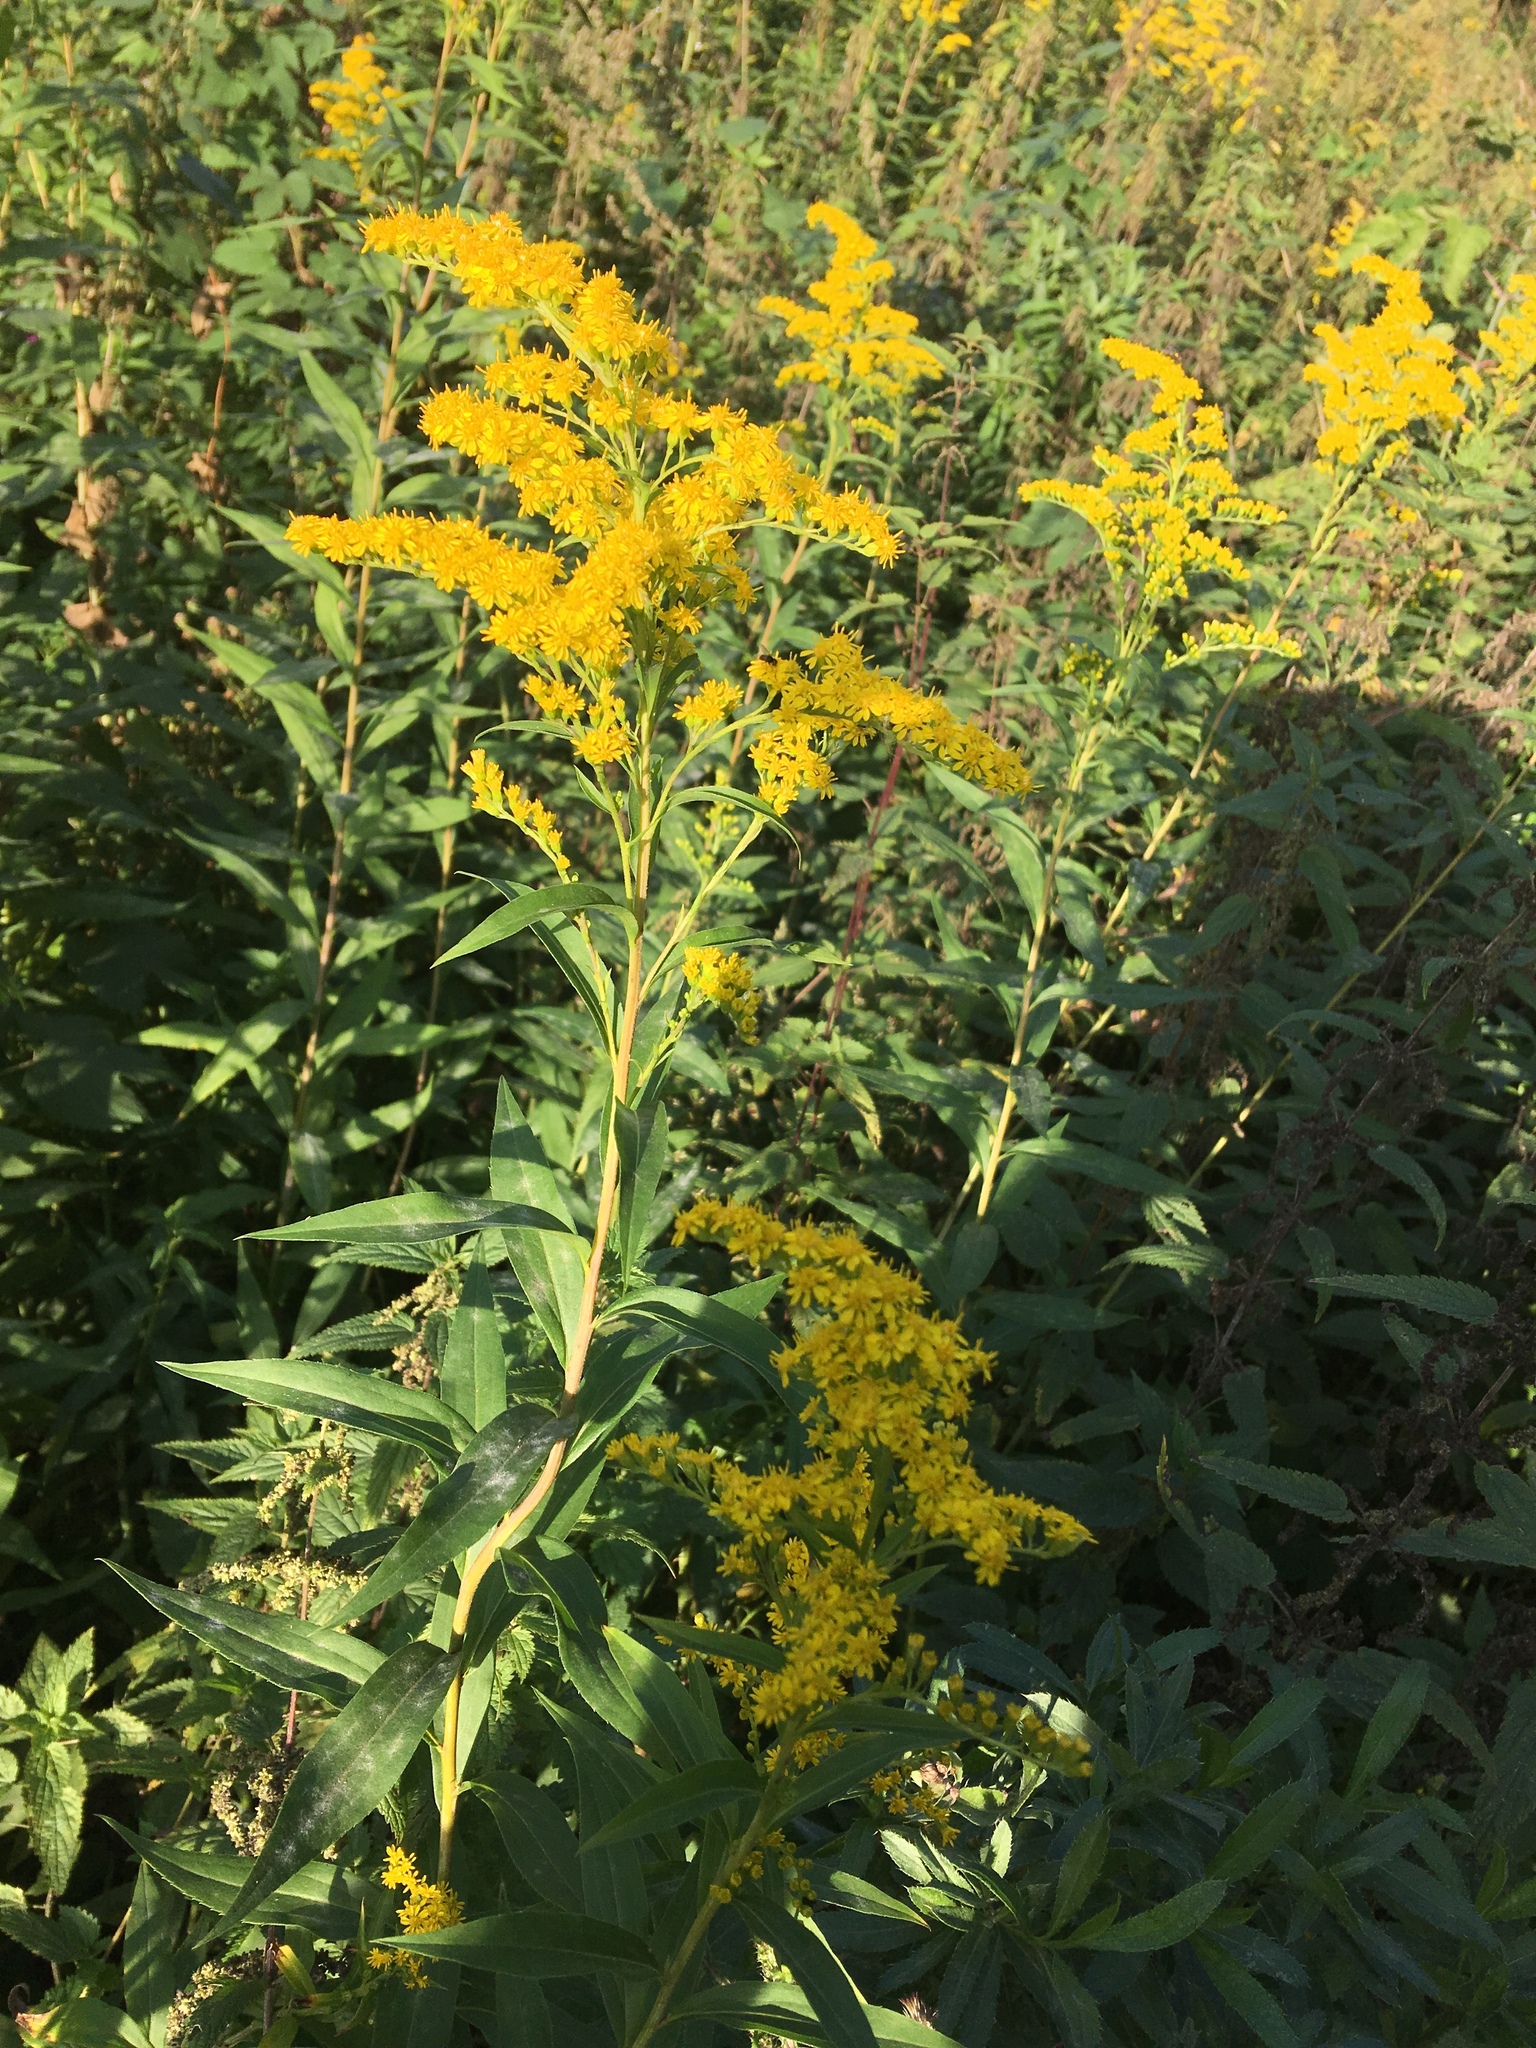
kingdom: Plantae
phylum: Tracheophyta
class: Magnoliopsida
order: Asterales
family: Asteraceae
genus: Solidago
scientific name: Solidago gigantea
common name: Giant goldenrod
